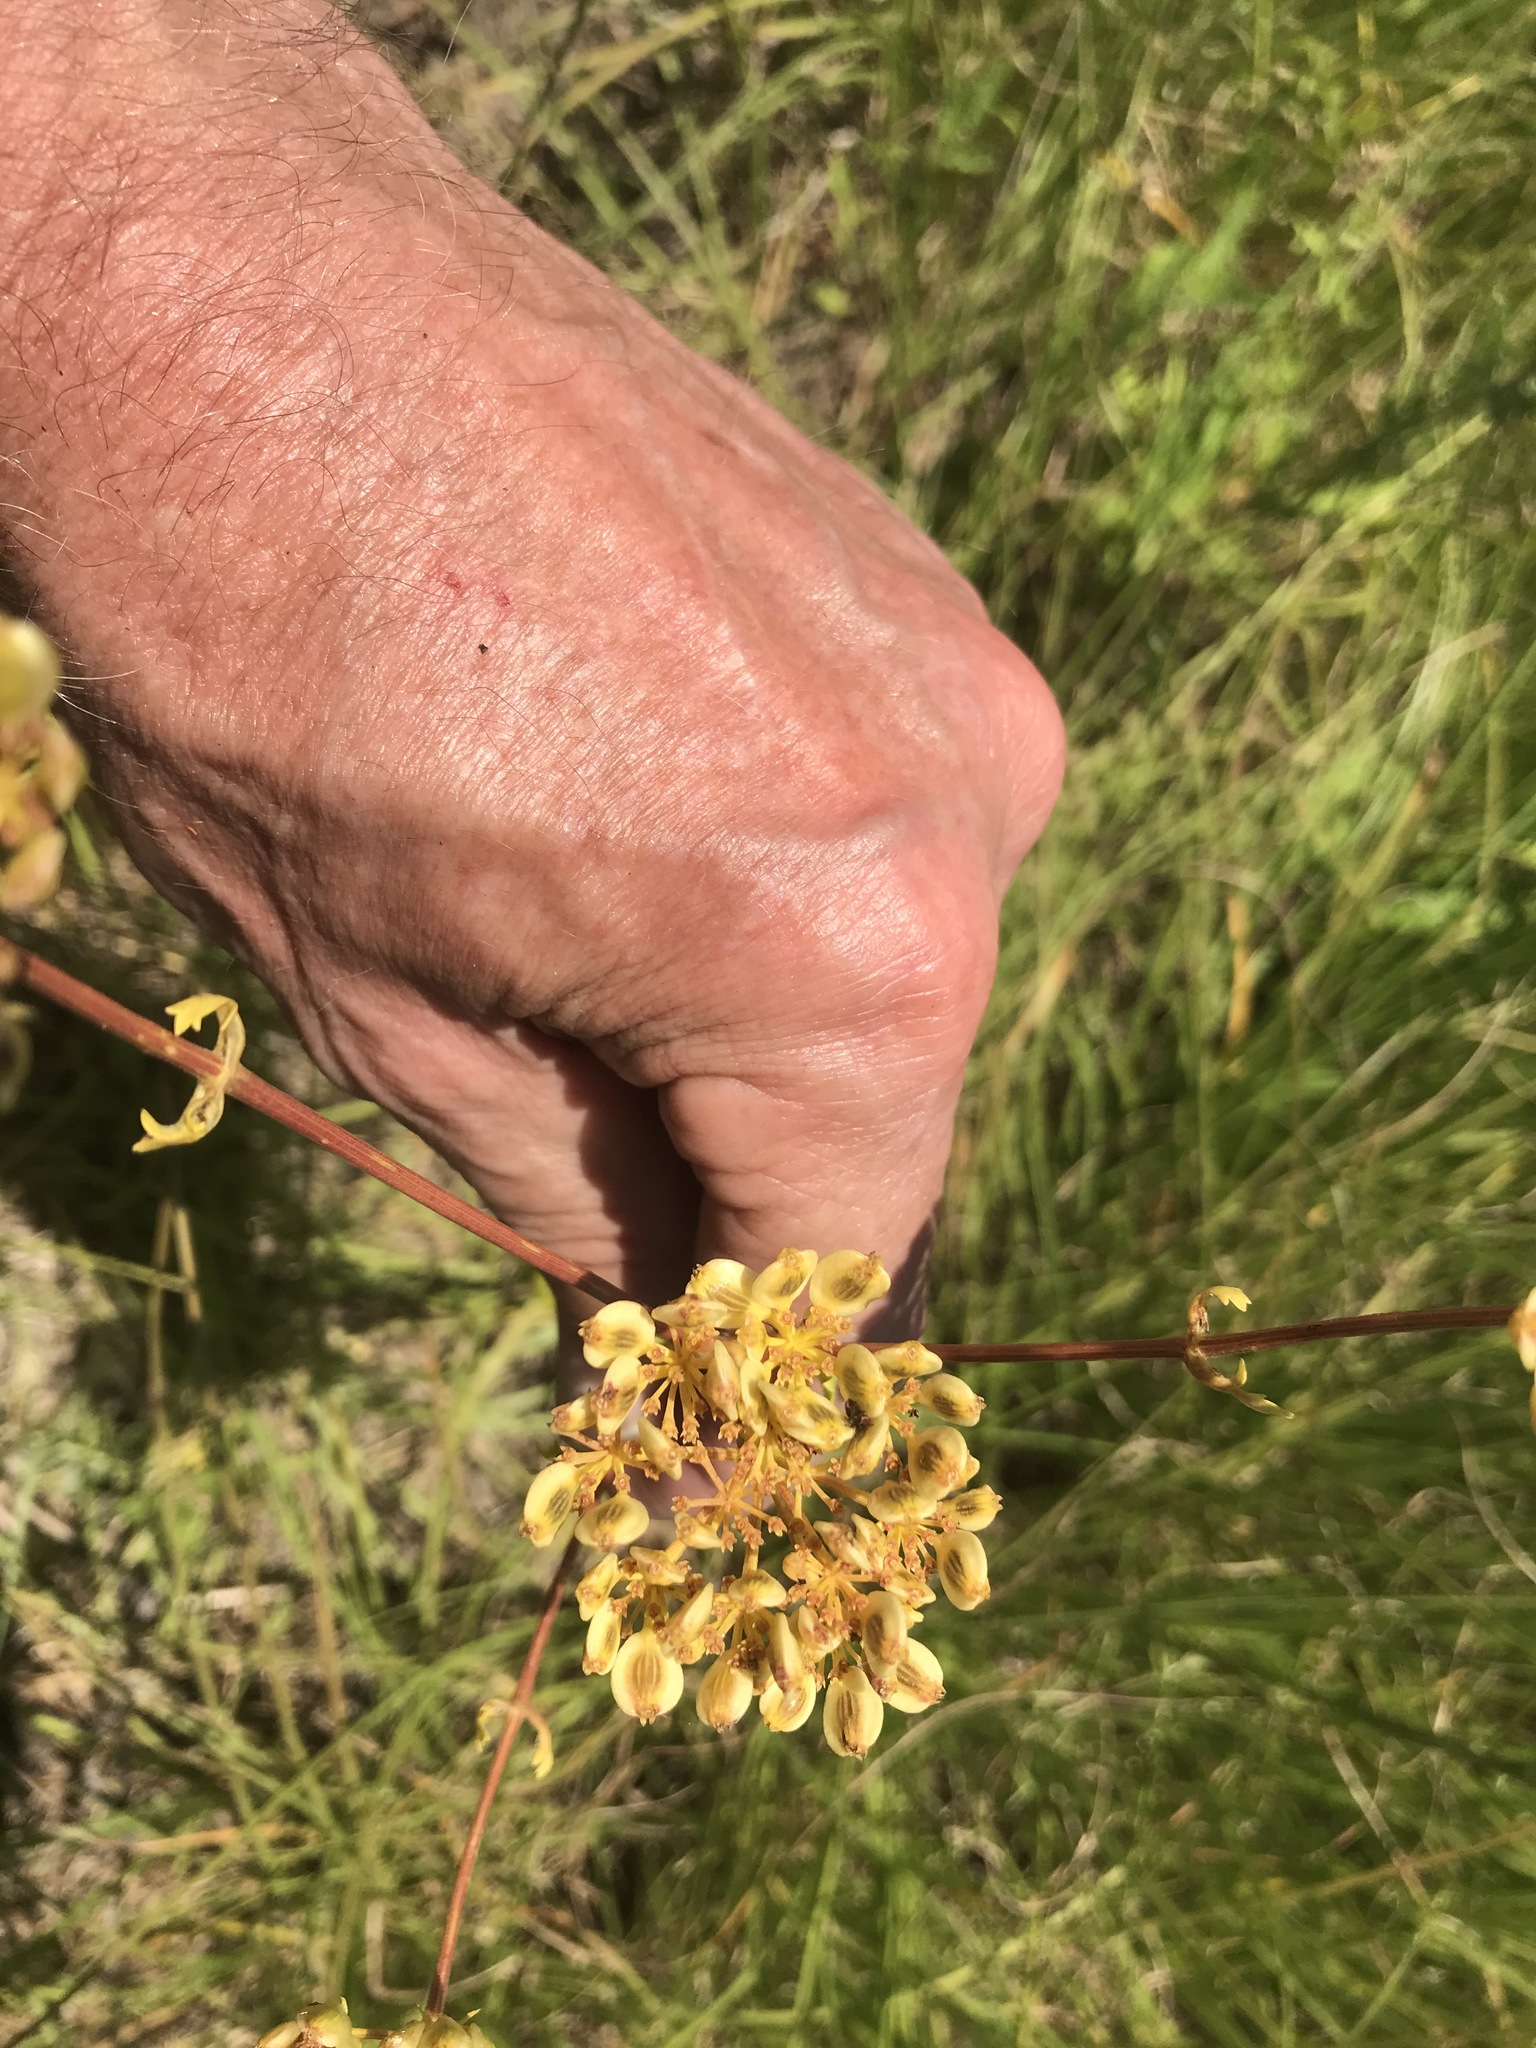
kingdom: Plantae
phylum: Tracheophyta
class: Magnoliopsida
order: Apiales
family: Apiaceae
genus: Polytaenia
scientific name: Polytaenia texana
